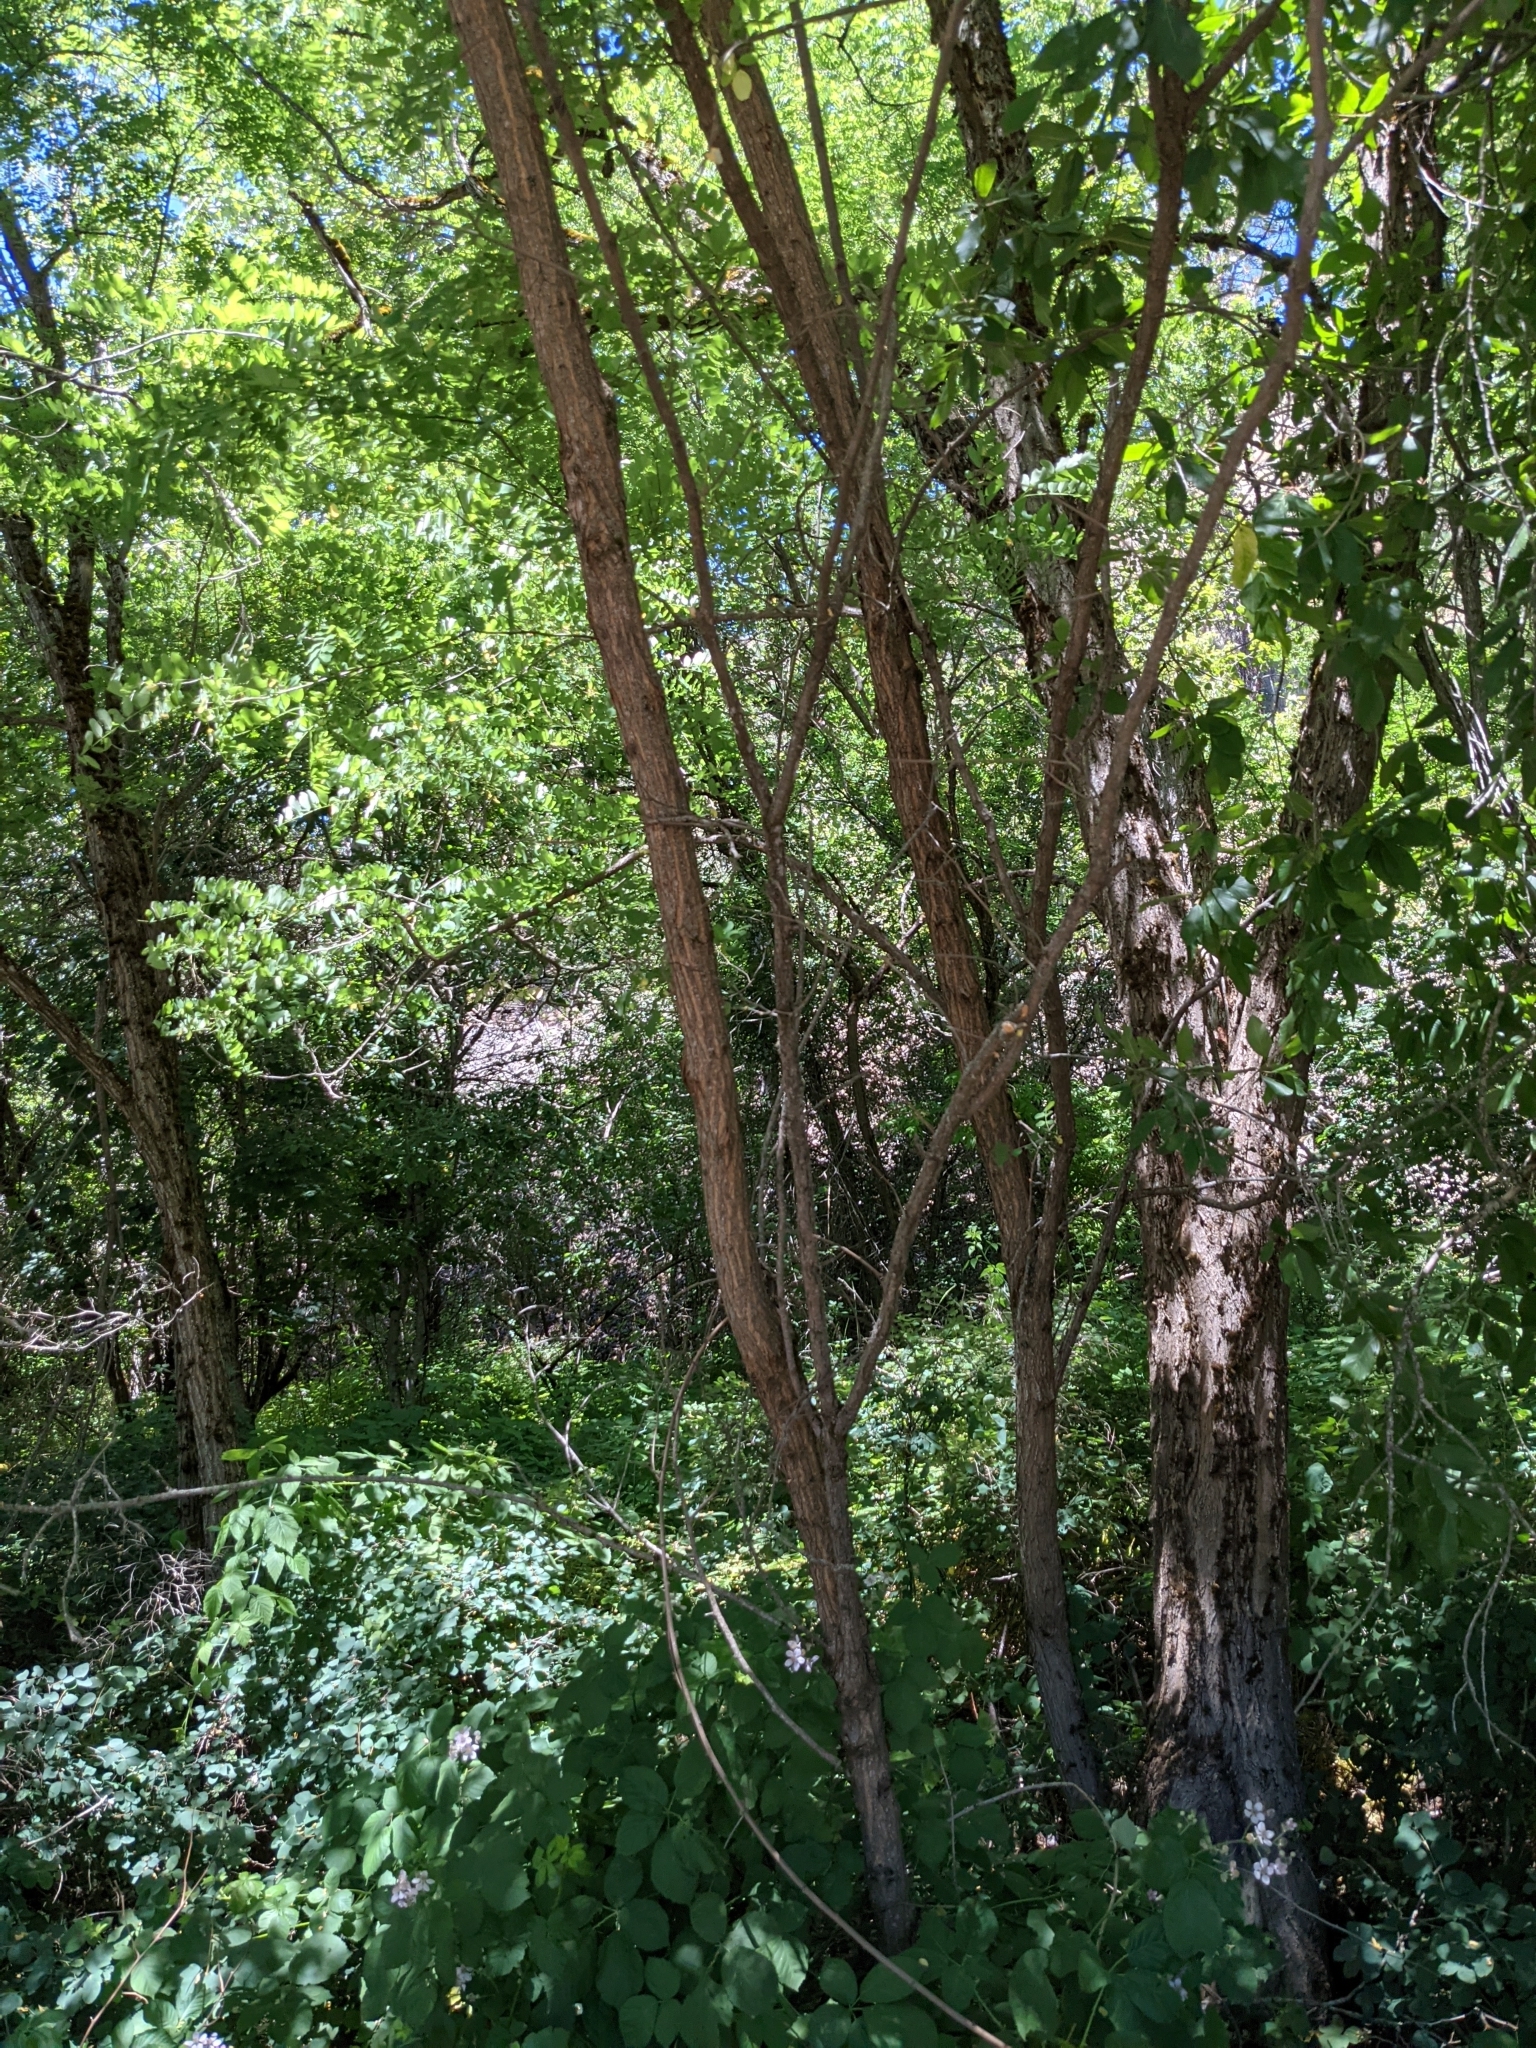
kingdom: Plantae
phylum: Tracheophyta
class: Magnoliopsida
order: Fabales
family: Fabaceae
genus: Robinia
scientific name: Robinia pseudoacacia
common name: Black locust
